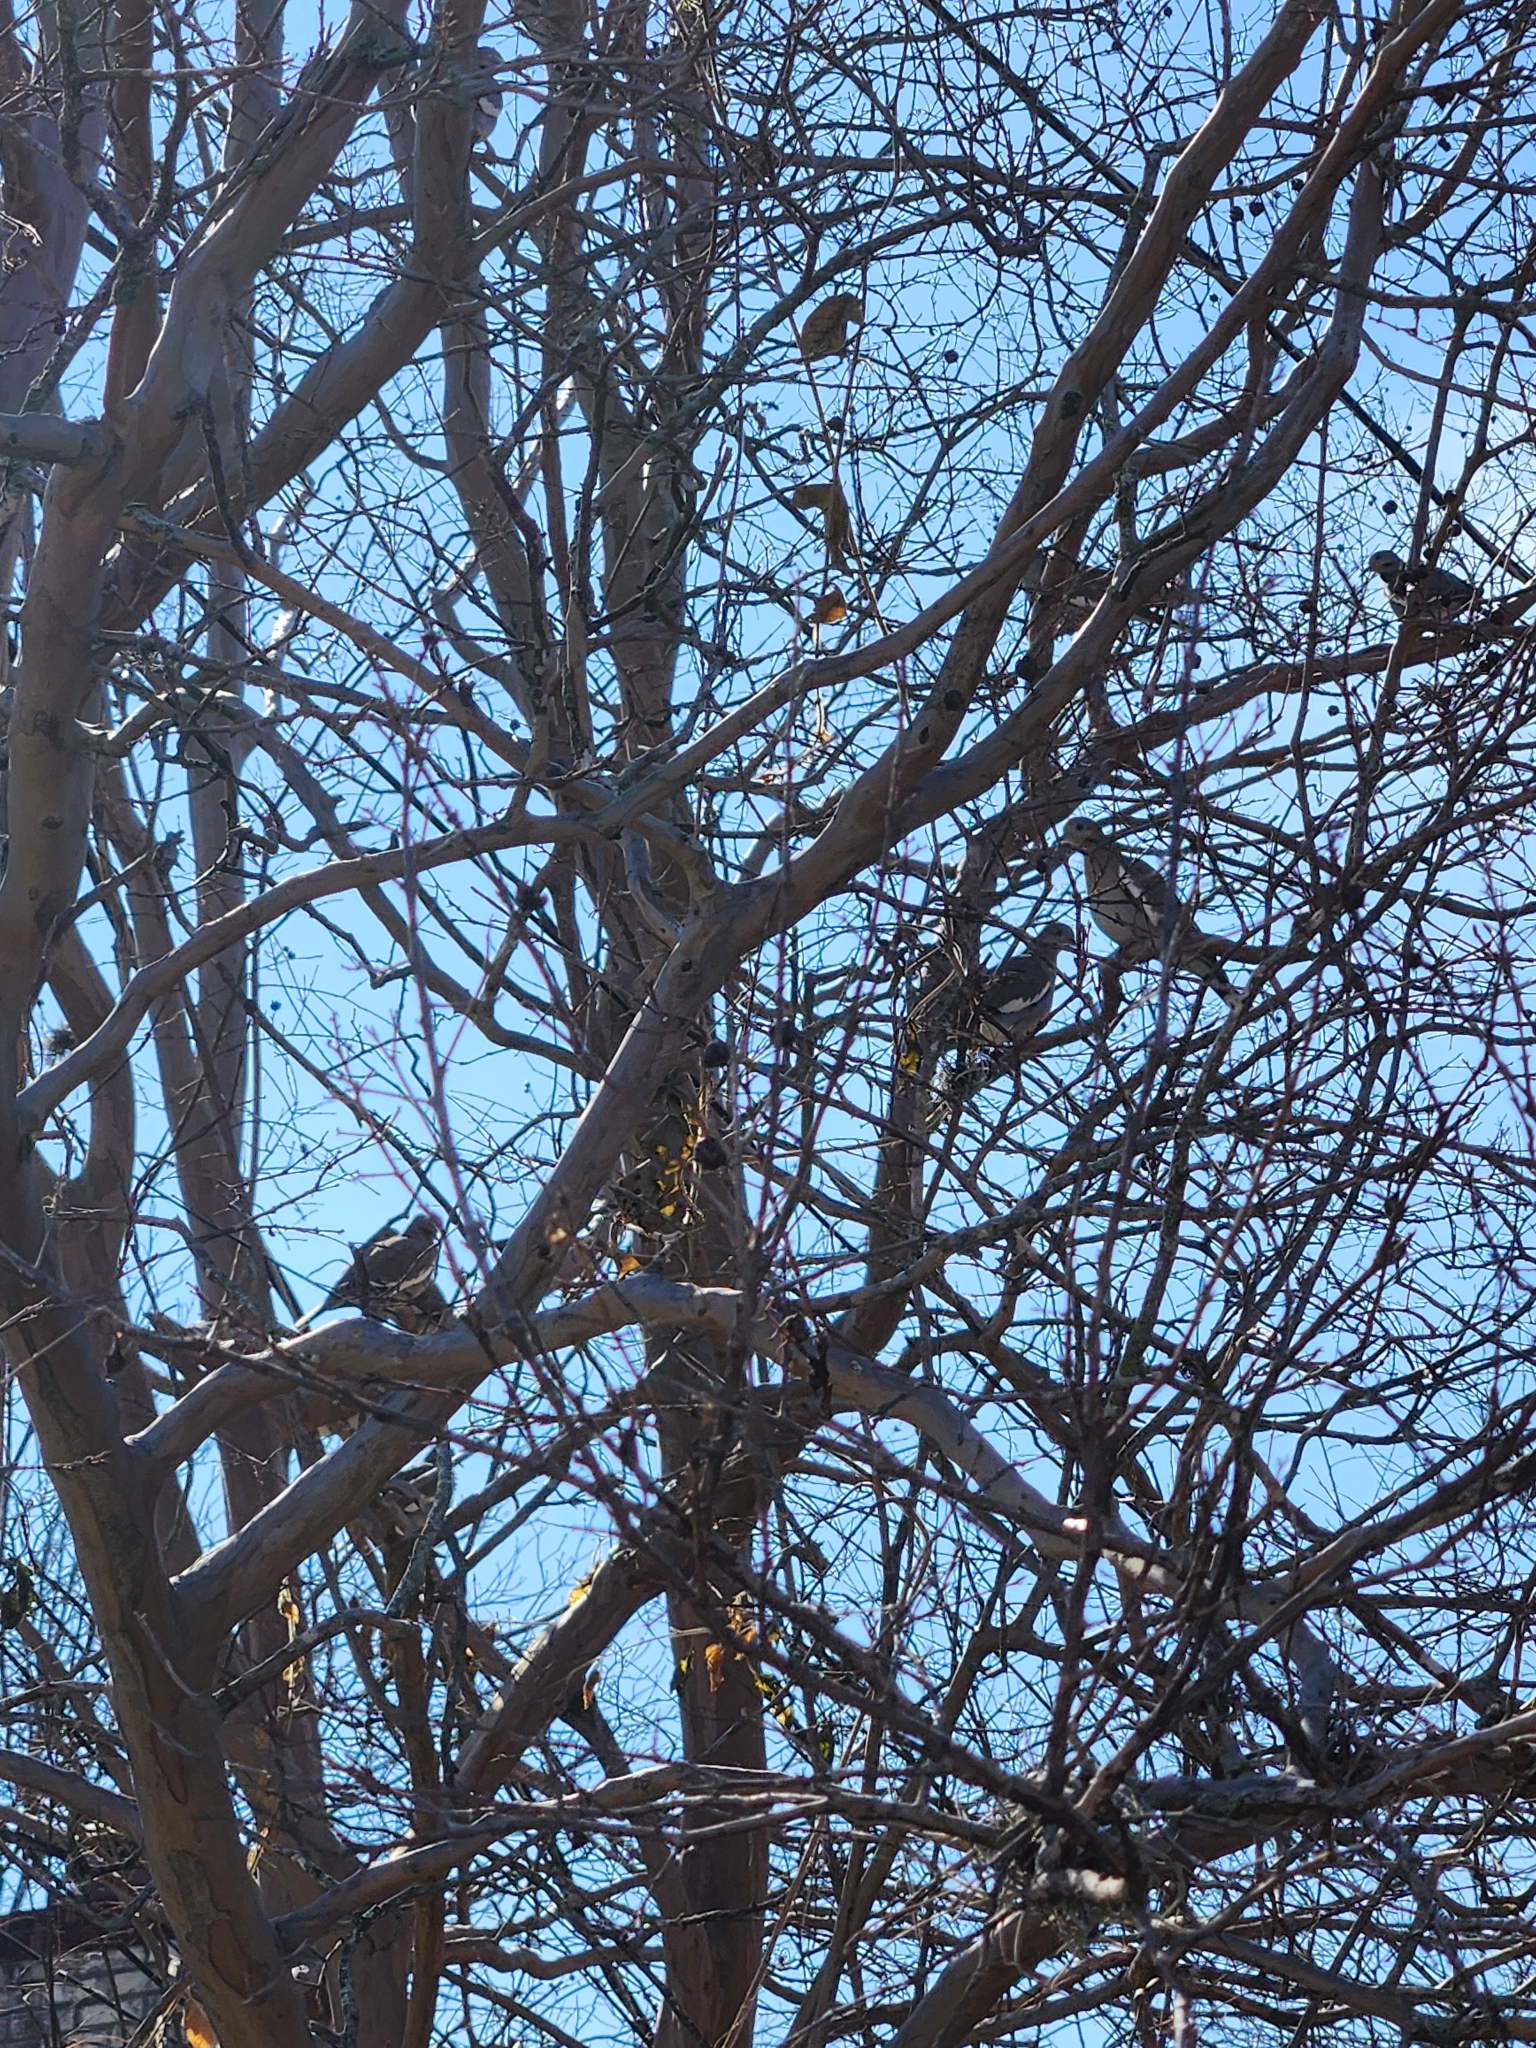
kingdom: Animalia
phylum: Chordata
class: Aves
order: Columbiformes
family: Columbidae
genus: Zenaida
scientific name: Zenaida asiatica
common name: White-winged dove
